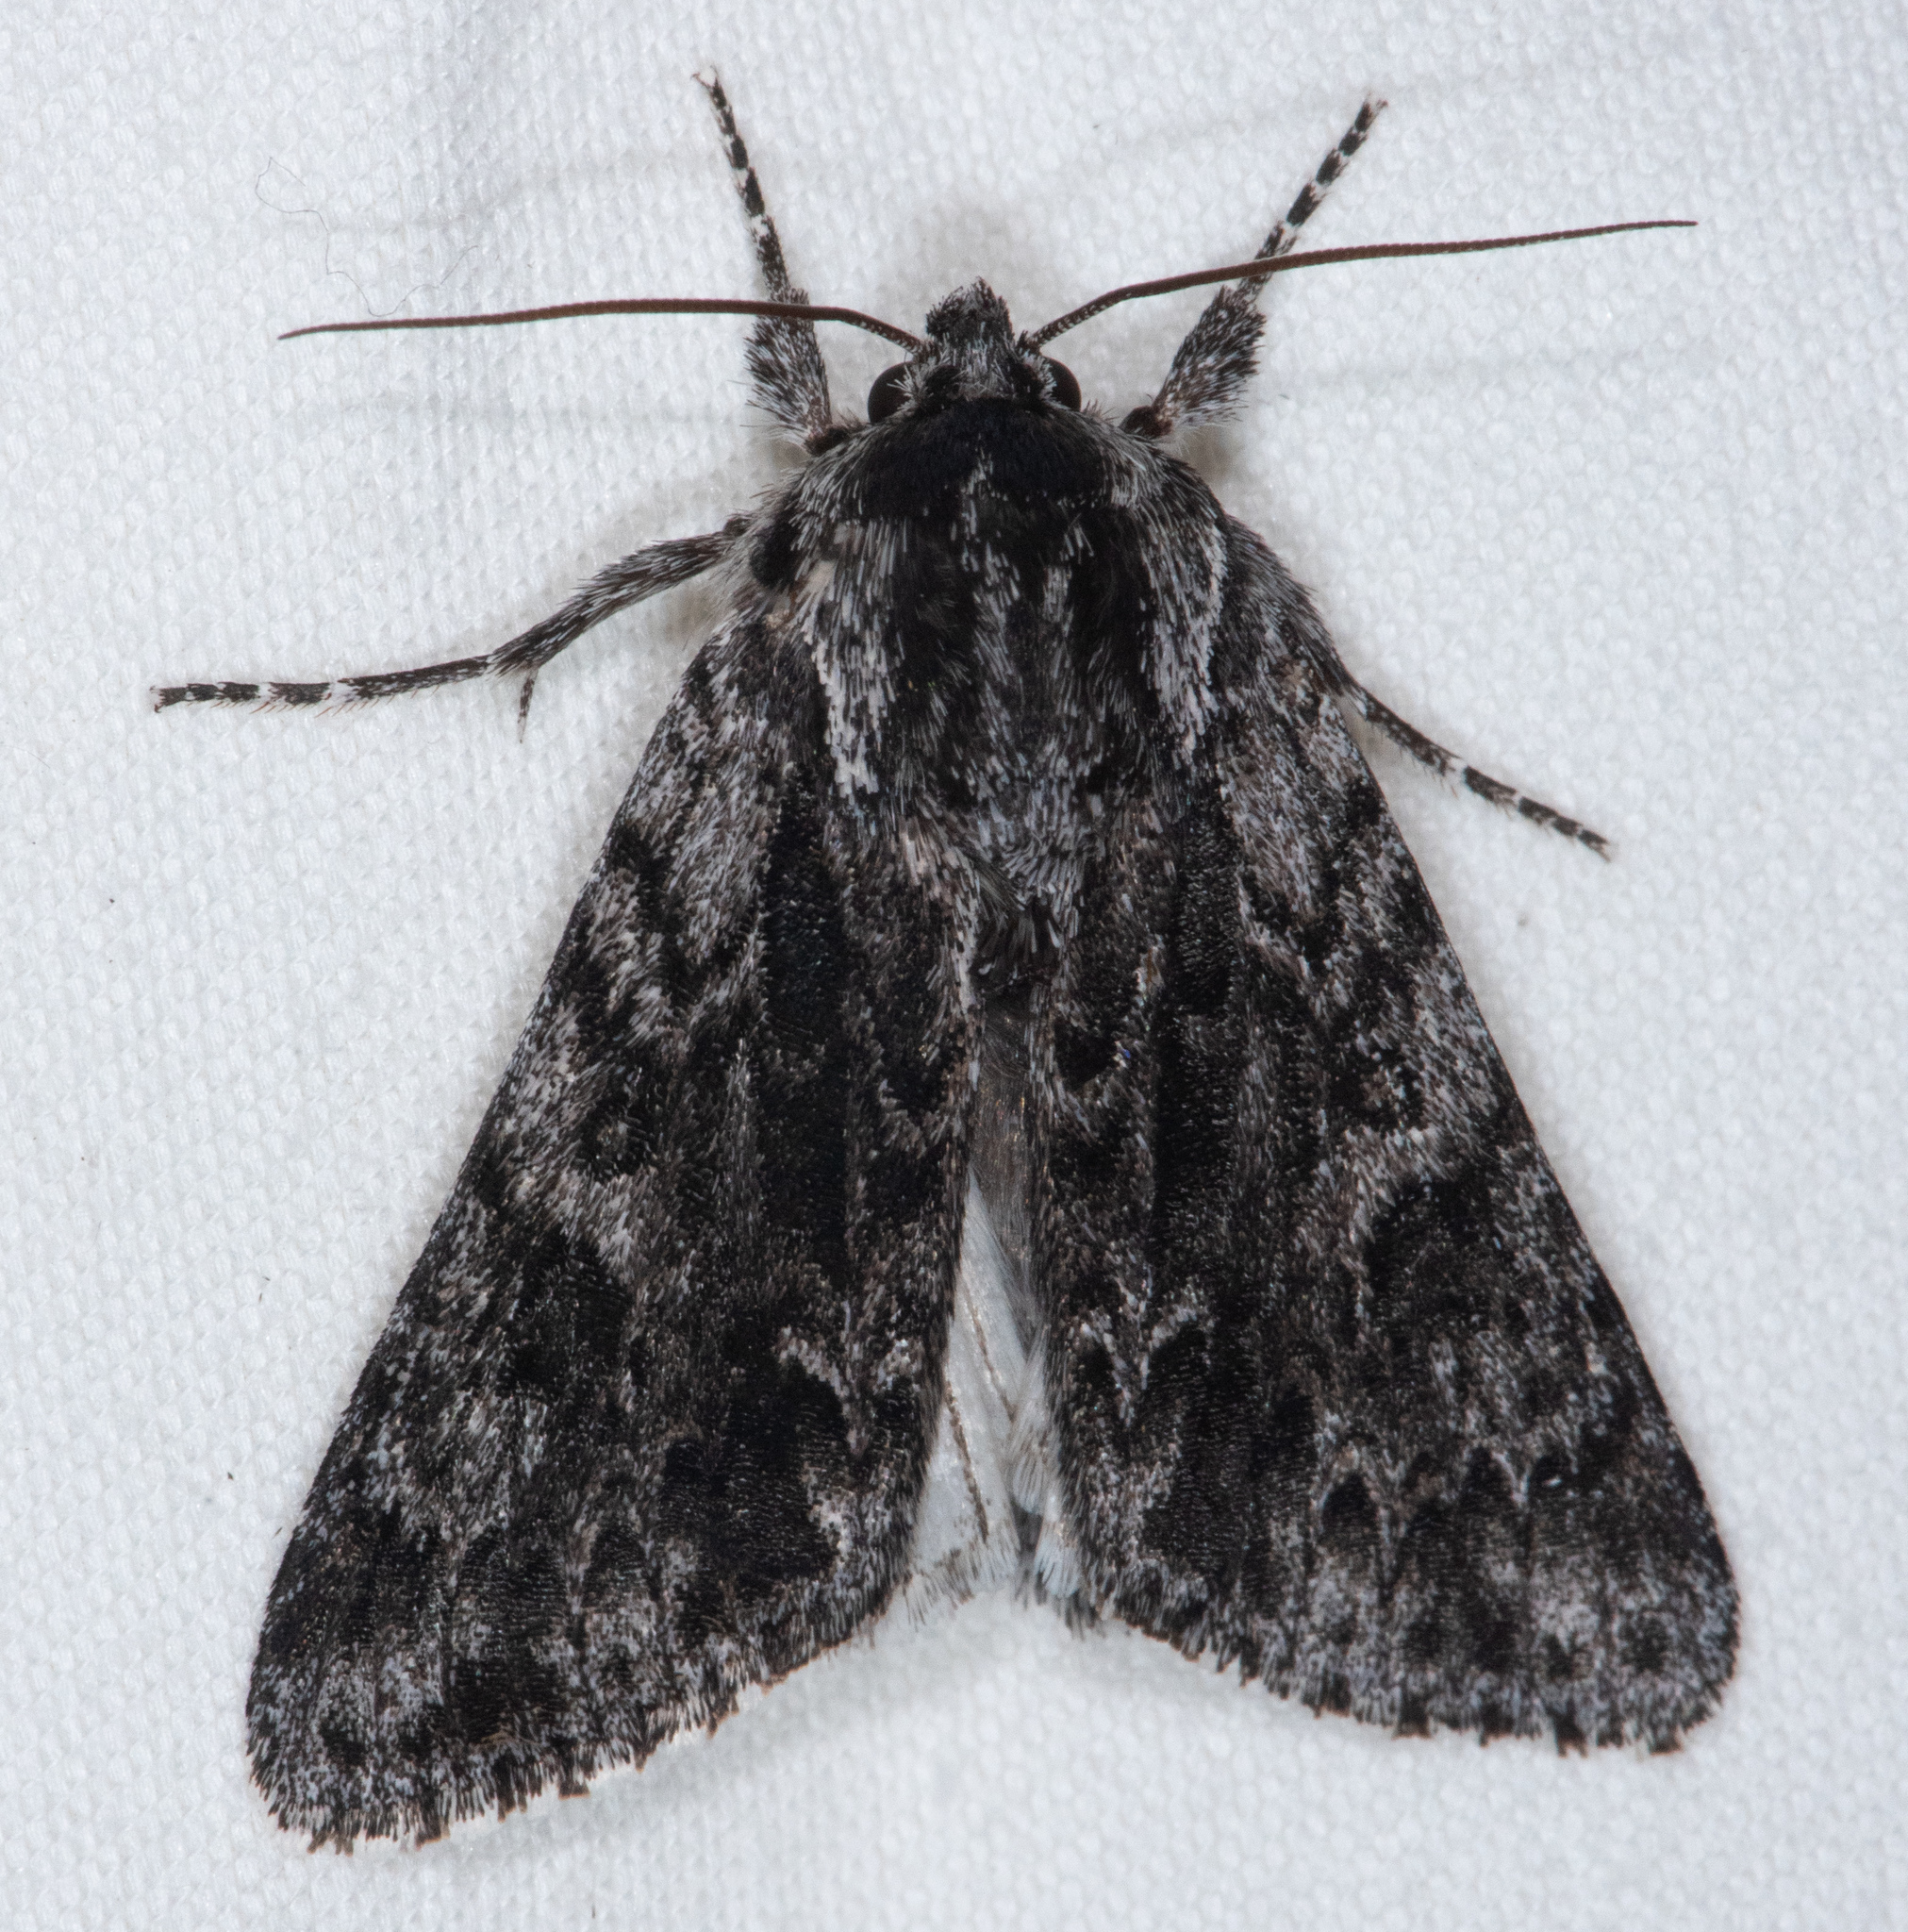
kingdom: Animalia
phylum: Arthropoda
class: Insecta
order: Lepidoptera
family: Noctuidae
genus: Acronicta
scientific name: Acronicta perdita
